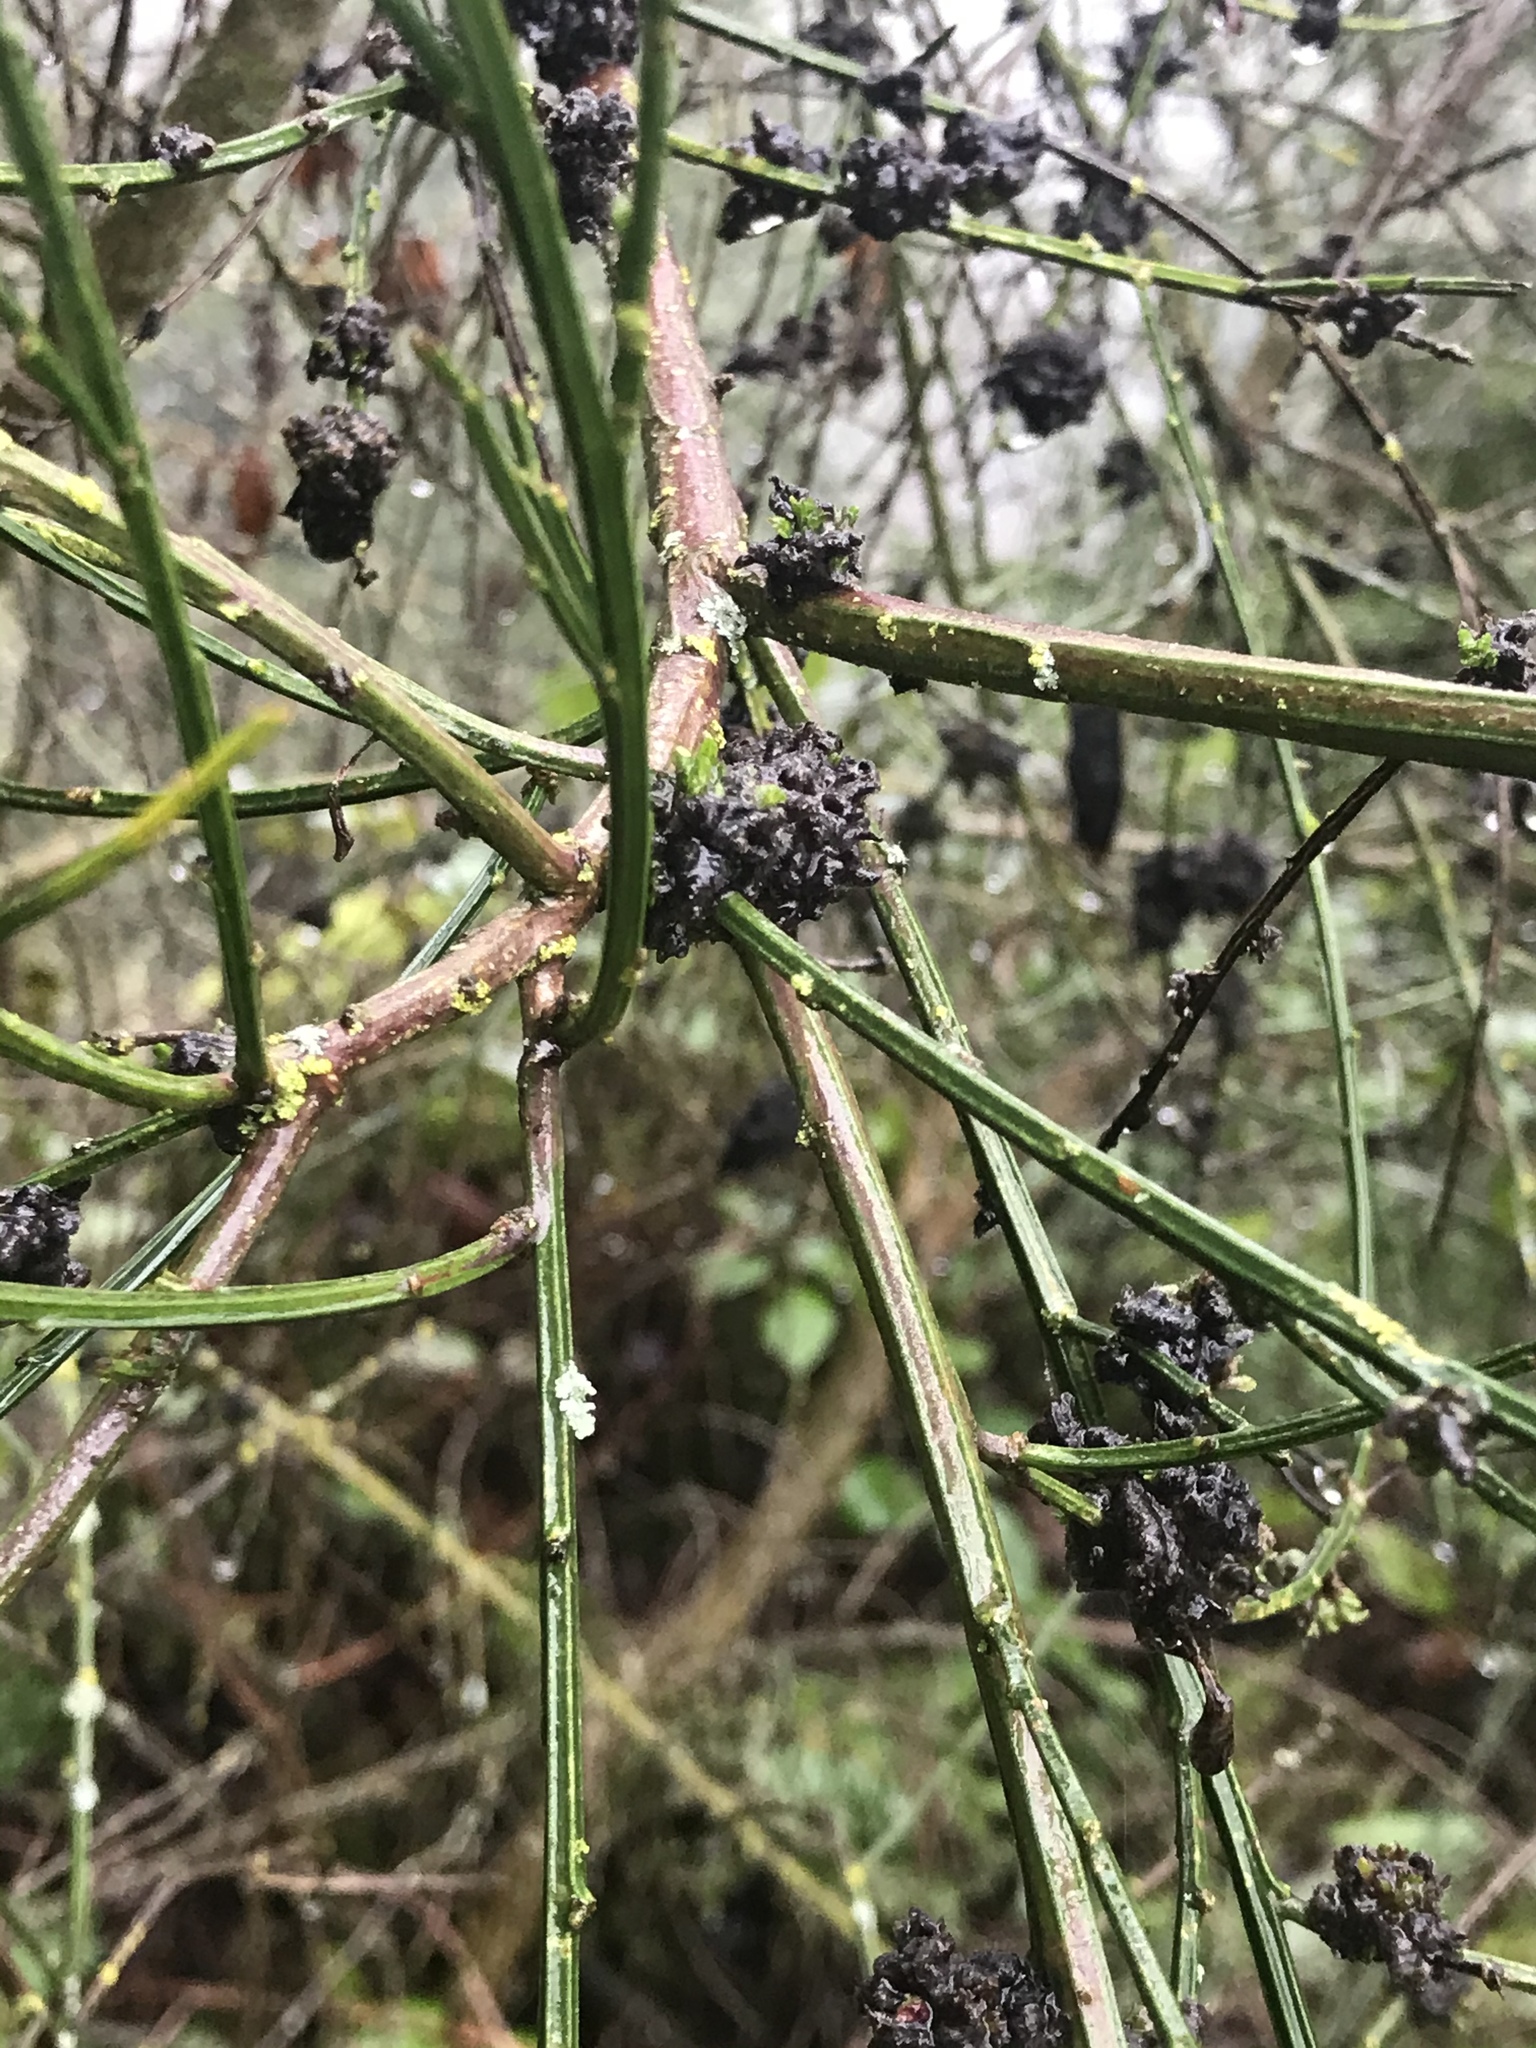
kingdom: Animalia
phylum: Arthropoda
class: Arachnida
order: Trombidiformes
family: Eriophyidae
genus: Aceria
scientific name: Aceria genistae
